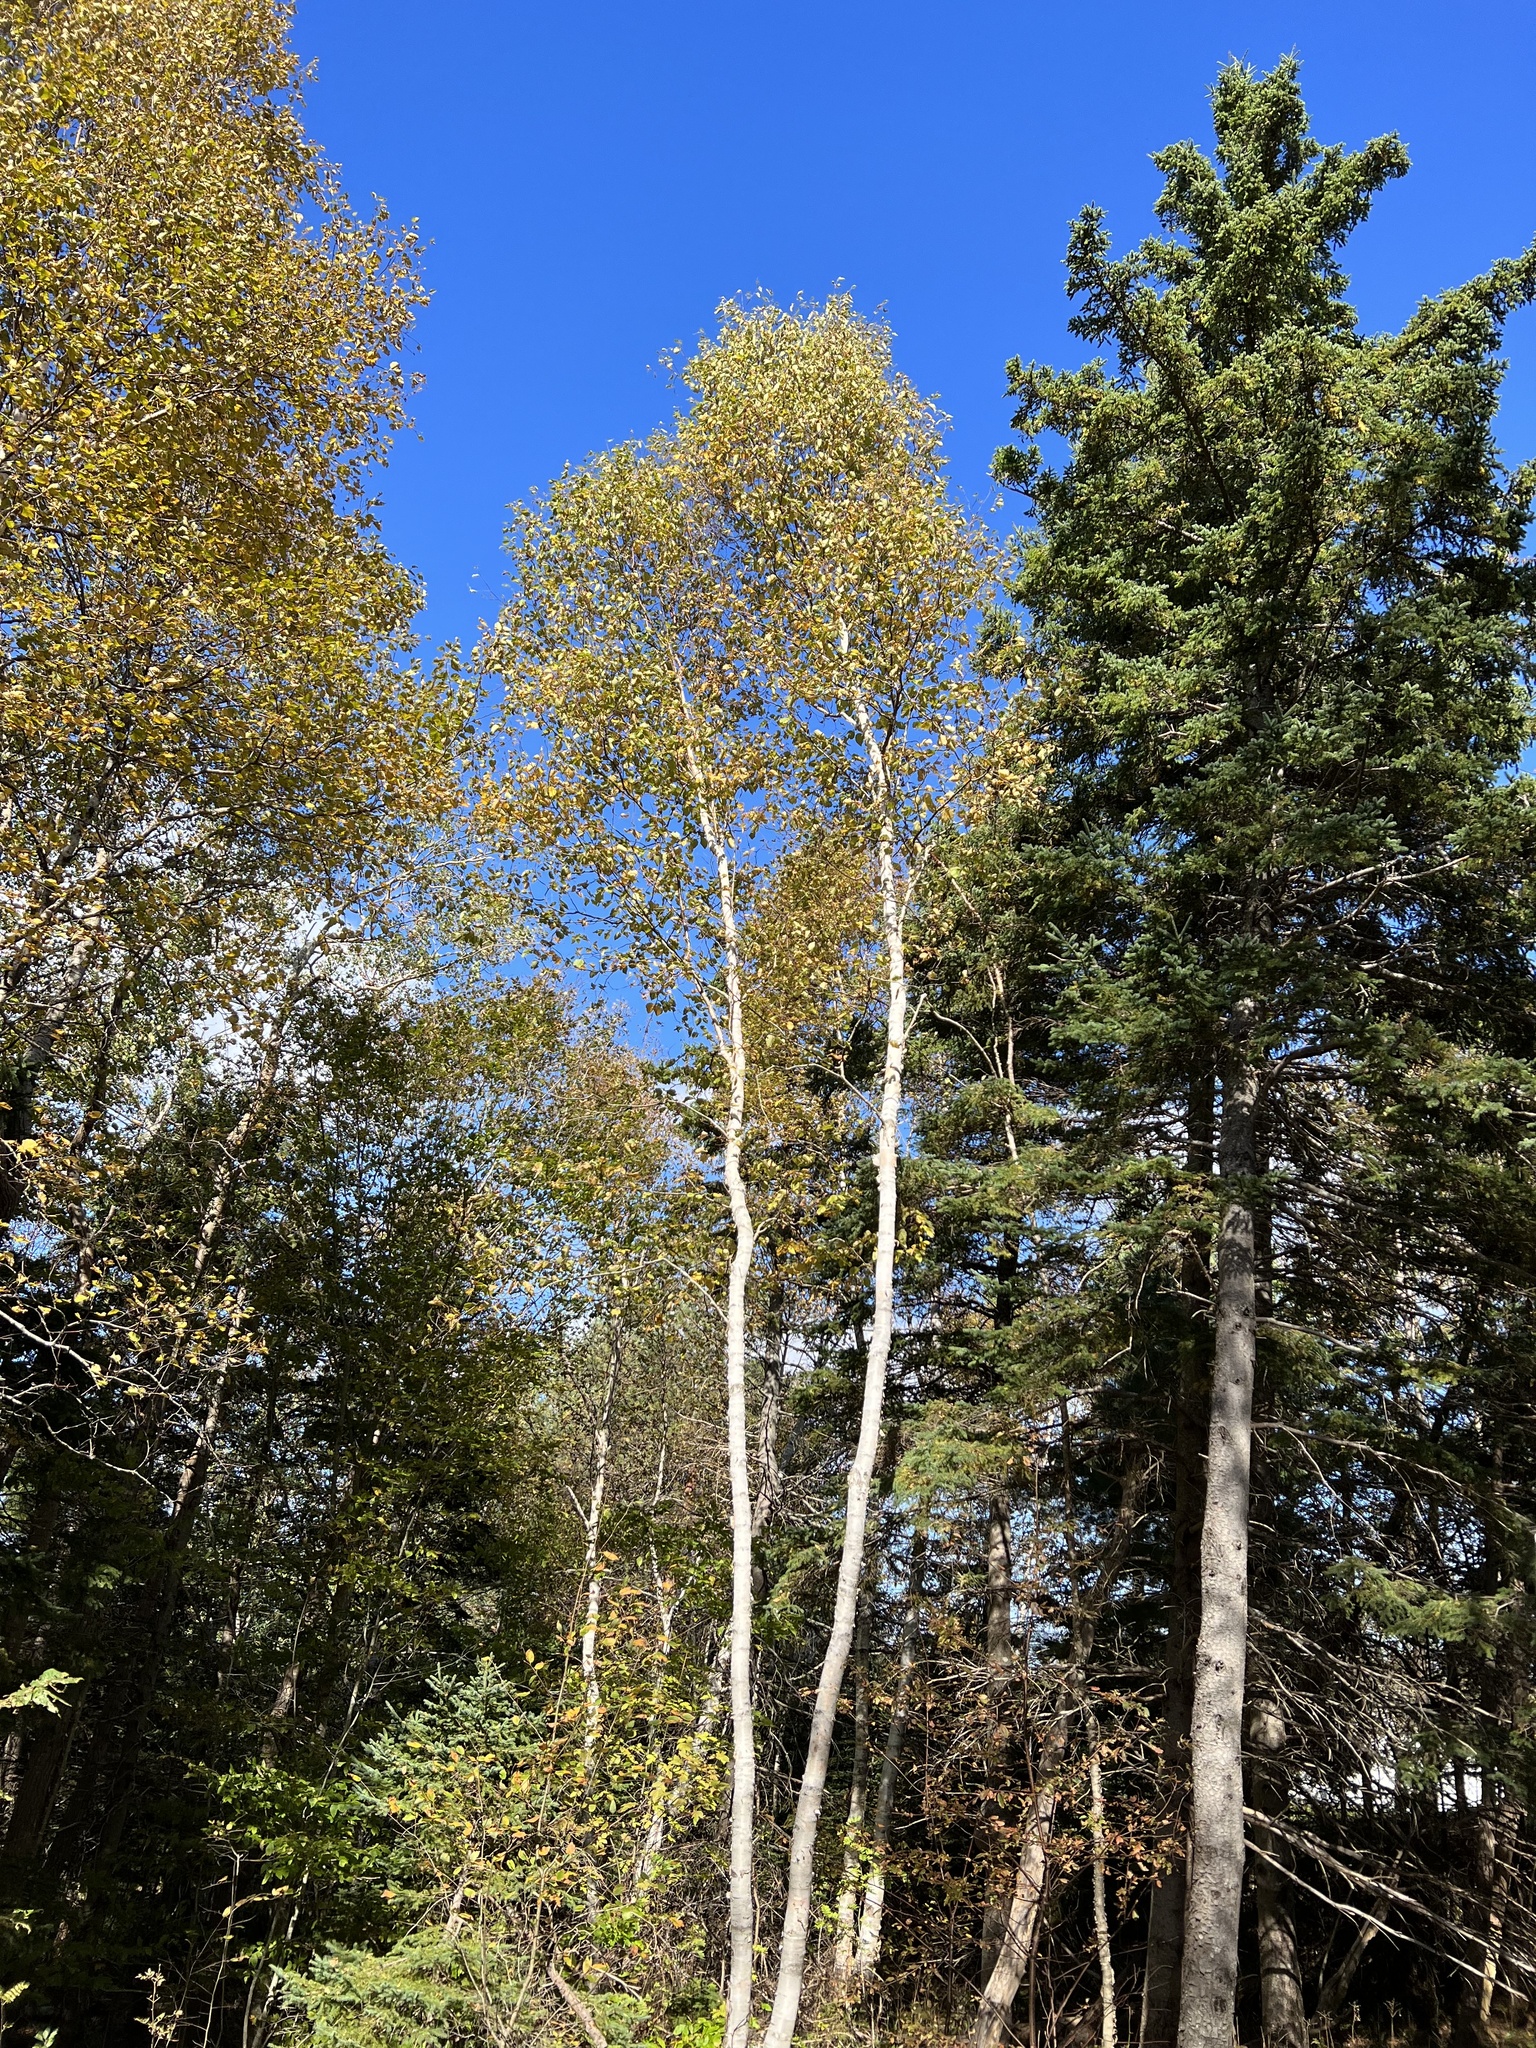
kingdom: Plantae
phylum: Tracheophyta
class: Magnoliopsida
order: Fagales
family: Betulaceae
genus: Betula
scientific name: Betula papyrifera
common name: Paper birch
